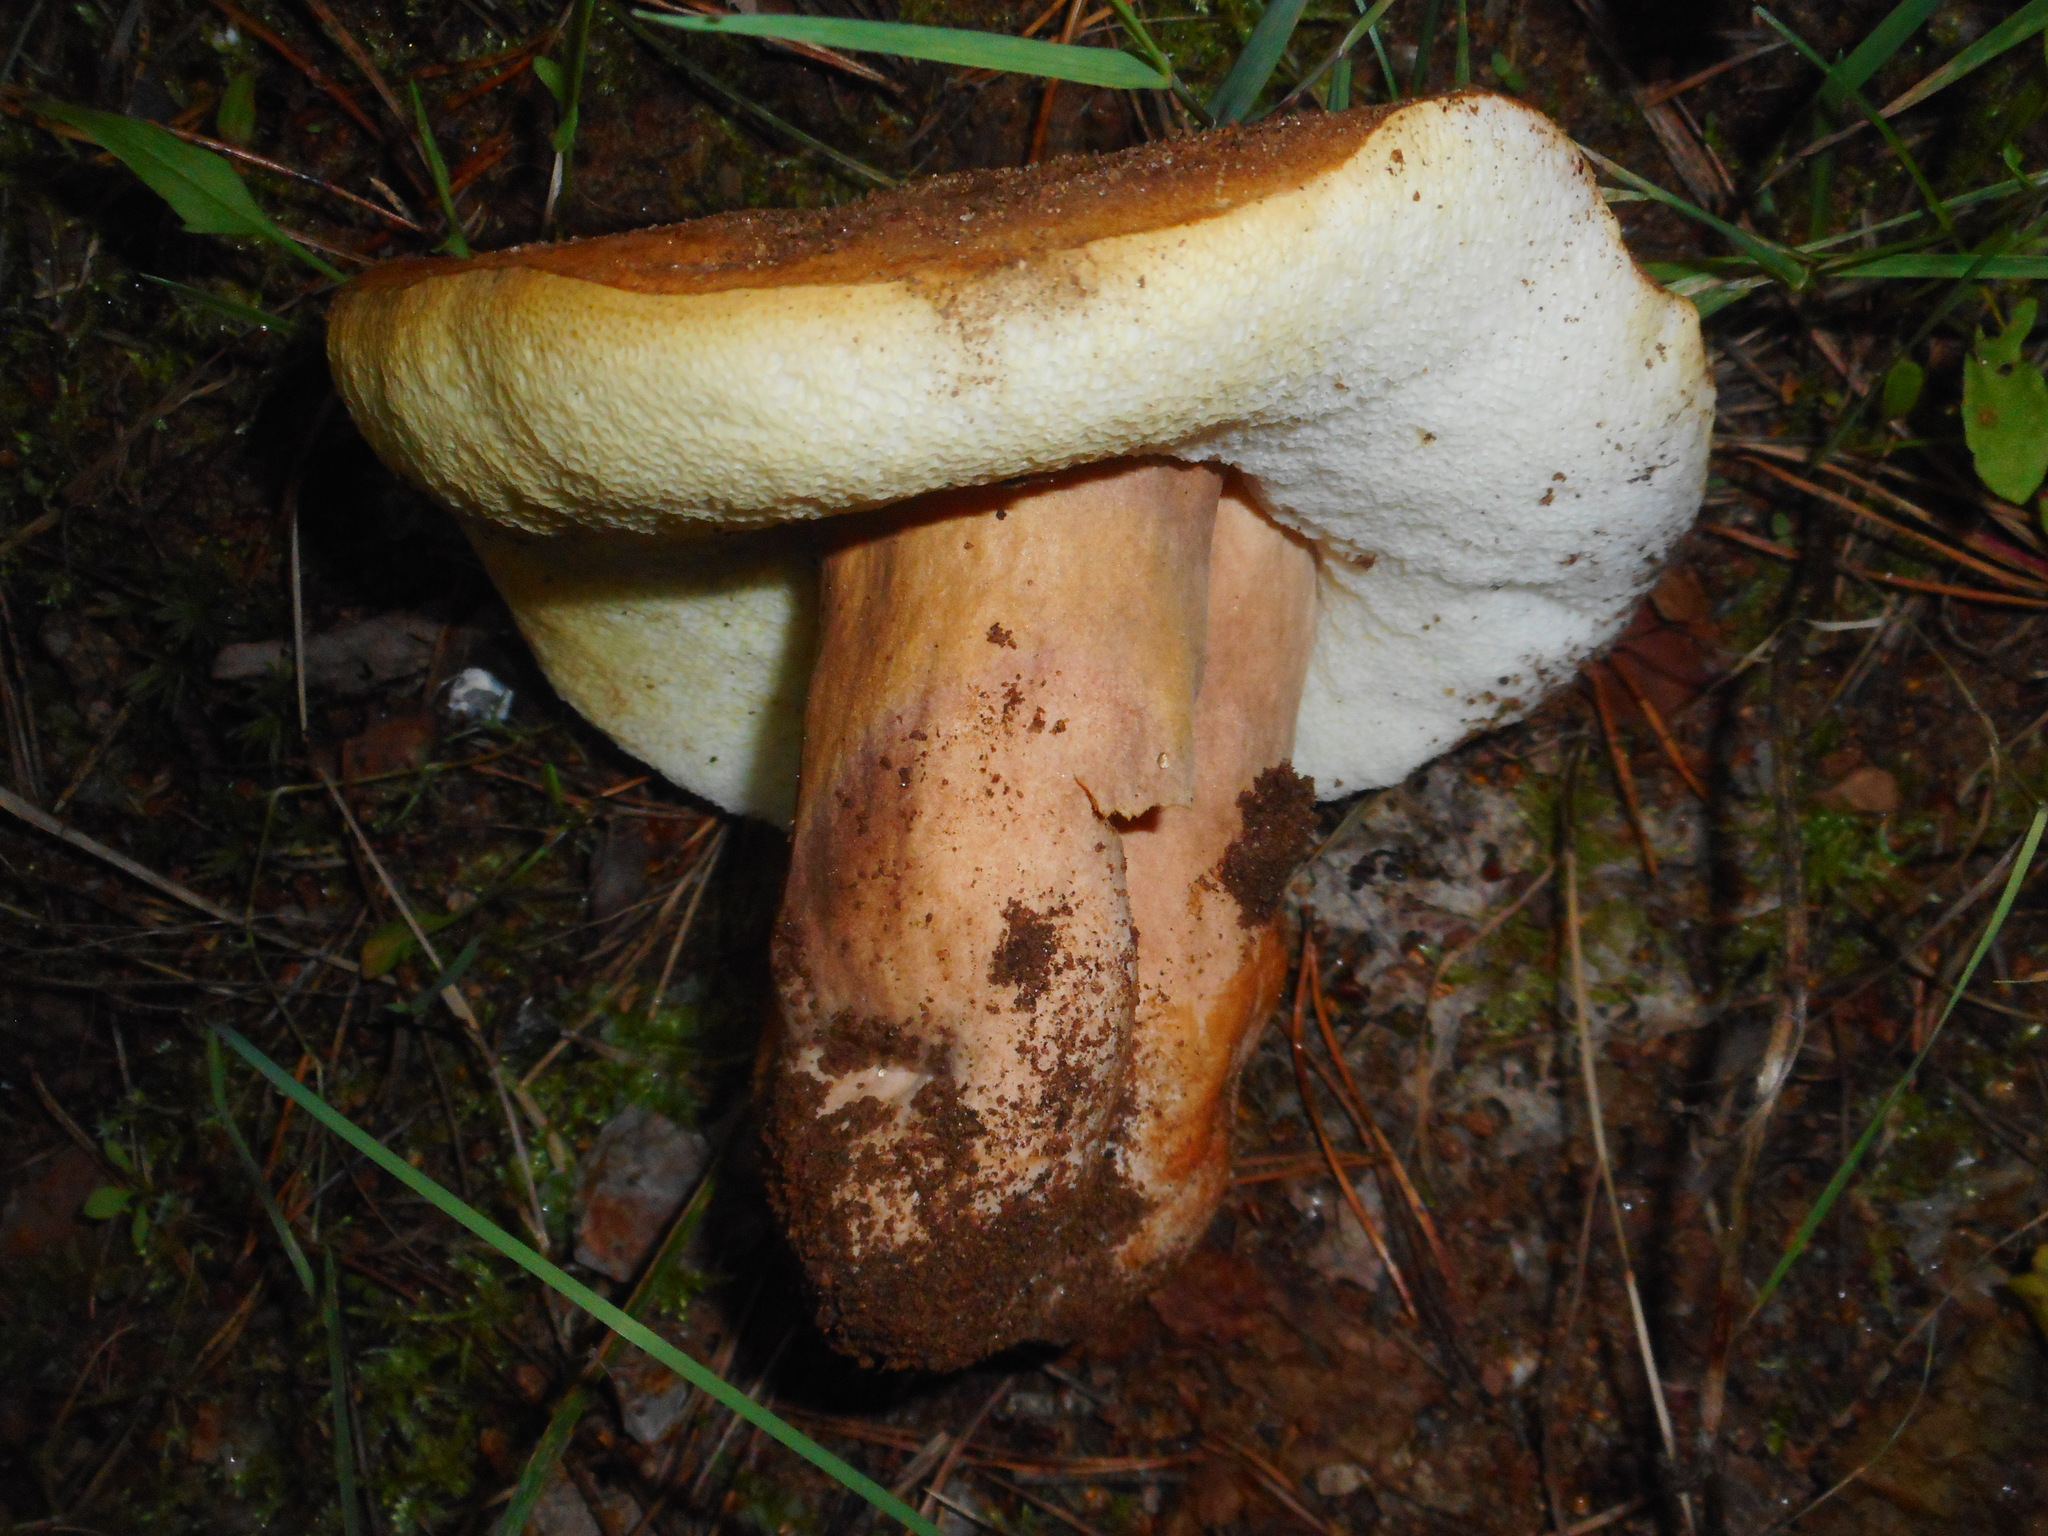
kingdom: Fungi
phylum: Basidiomycota
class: Agaricomycetes
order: Boletales
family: Gyroporaceae
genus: Gyroporus
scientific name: Gyroporus castaneus
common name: Chestnut bolete
